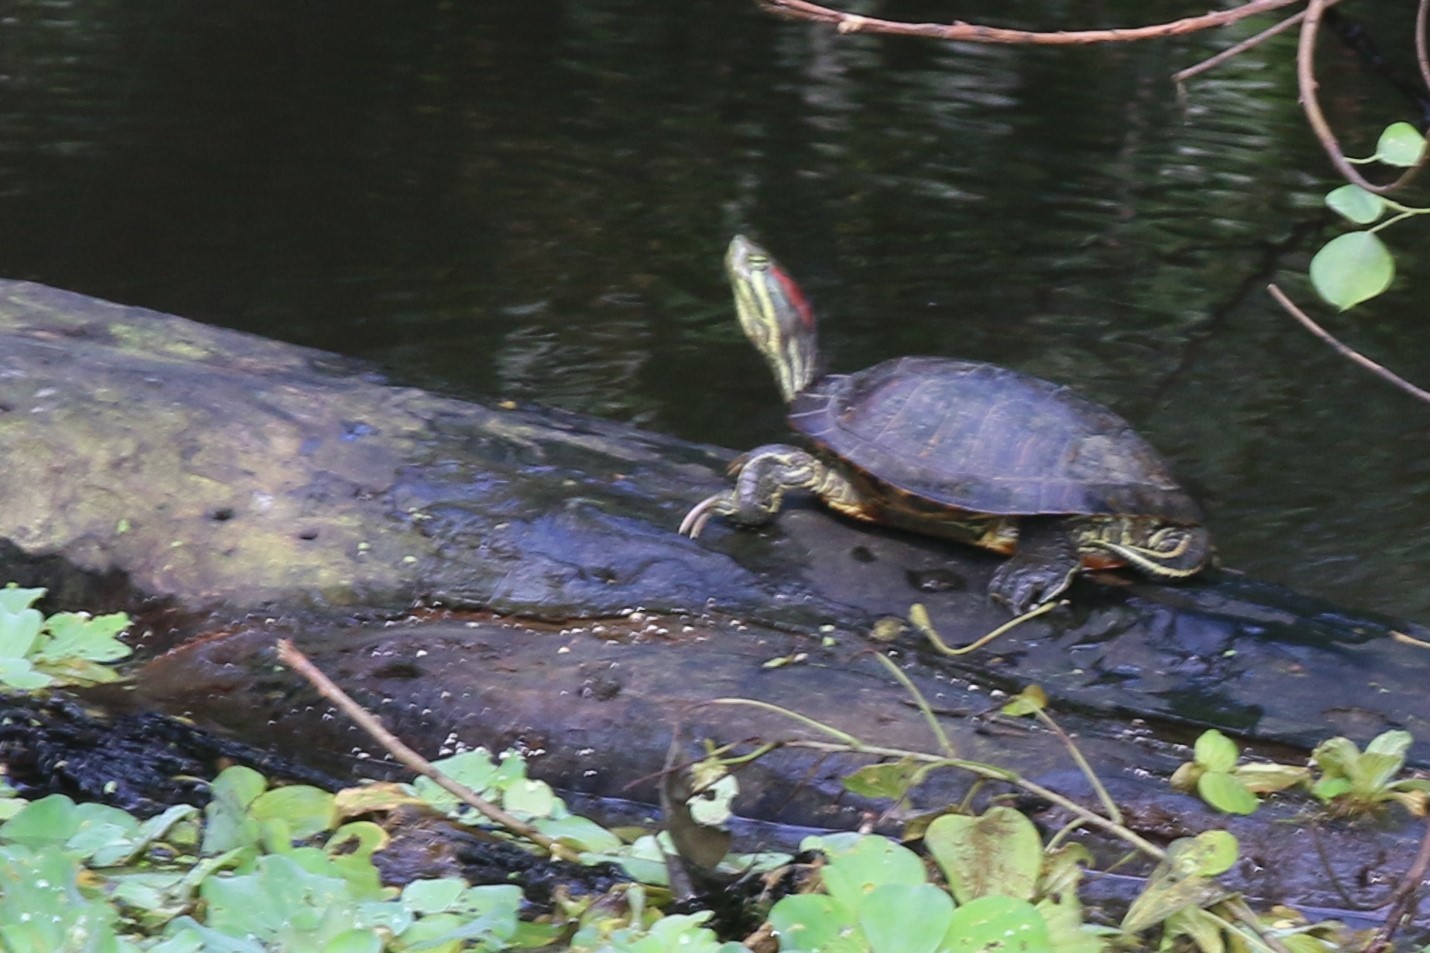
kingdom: Animalia
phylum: Chordata
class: Testudines
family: Emydidae
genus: Trachemys
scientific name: Trachemys scripta
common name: Slider
